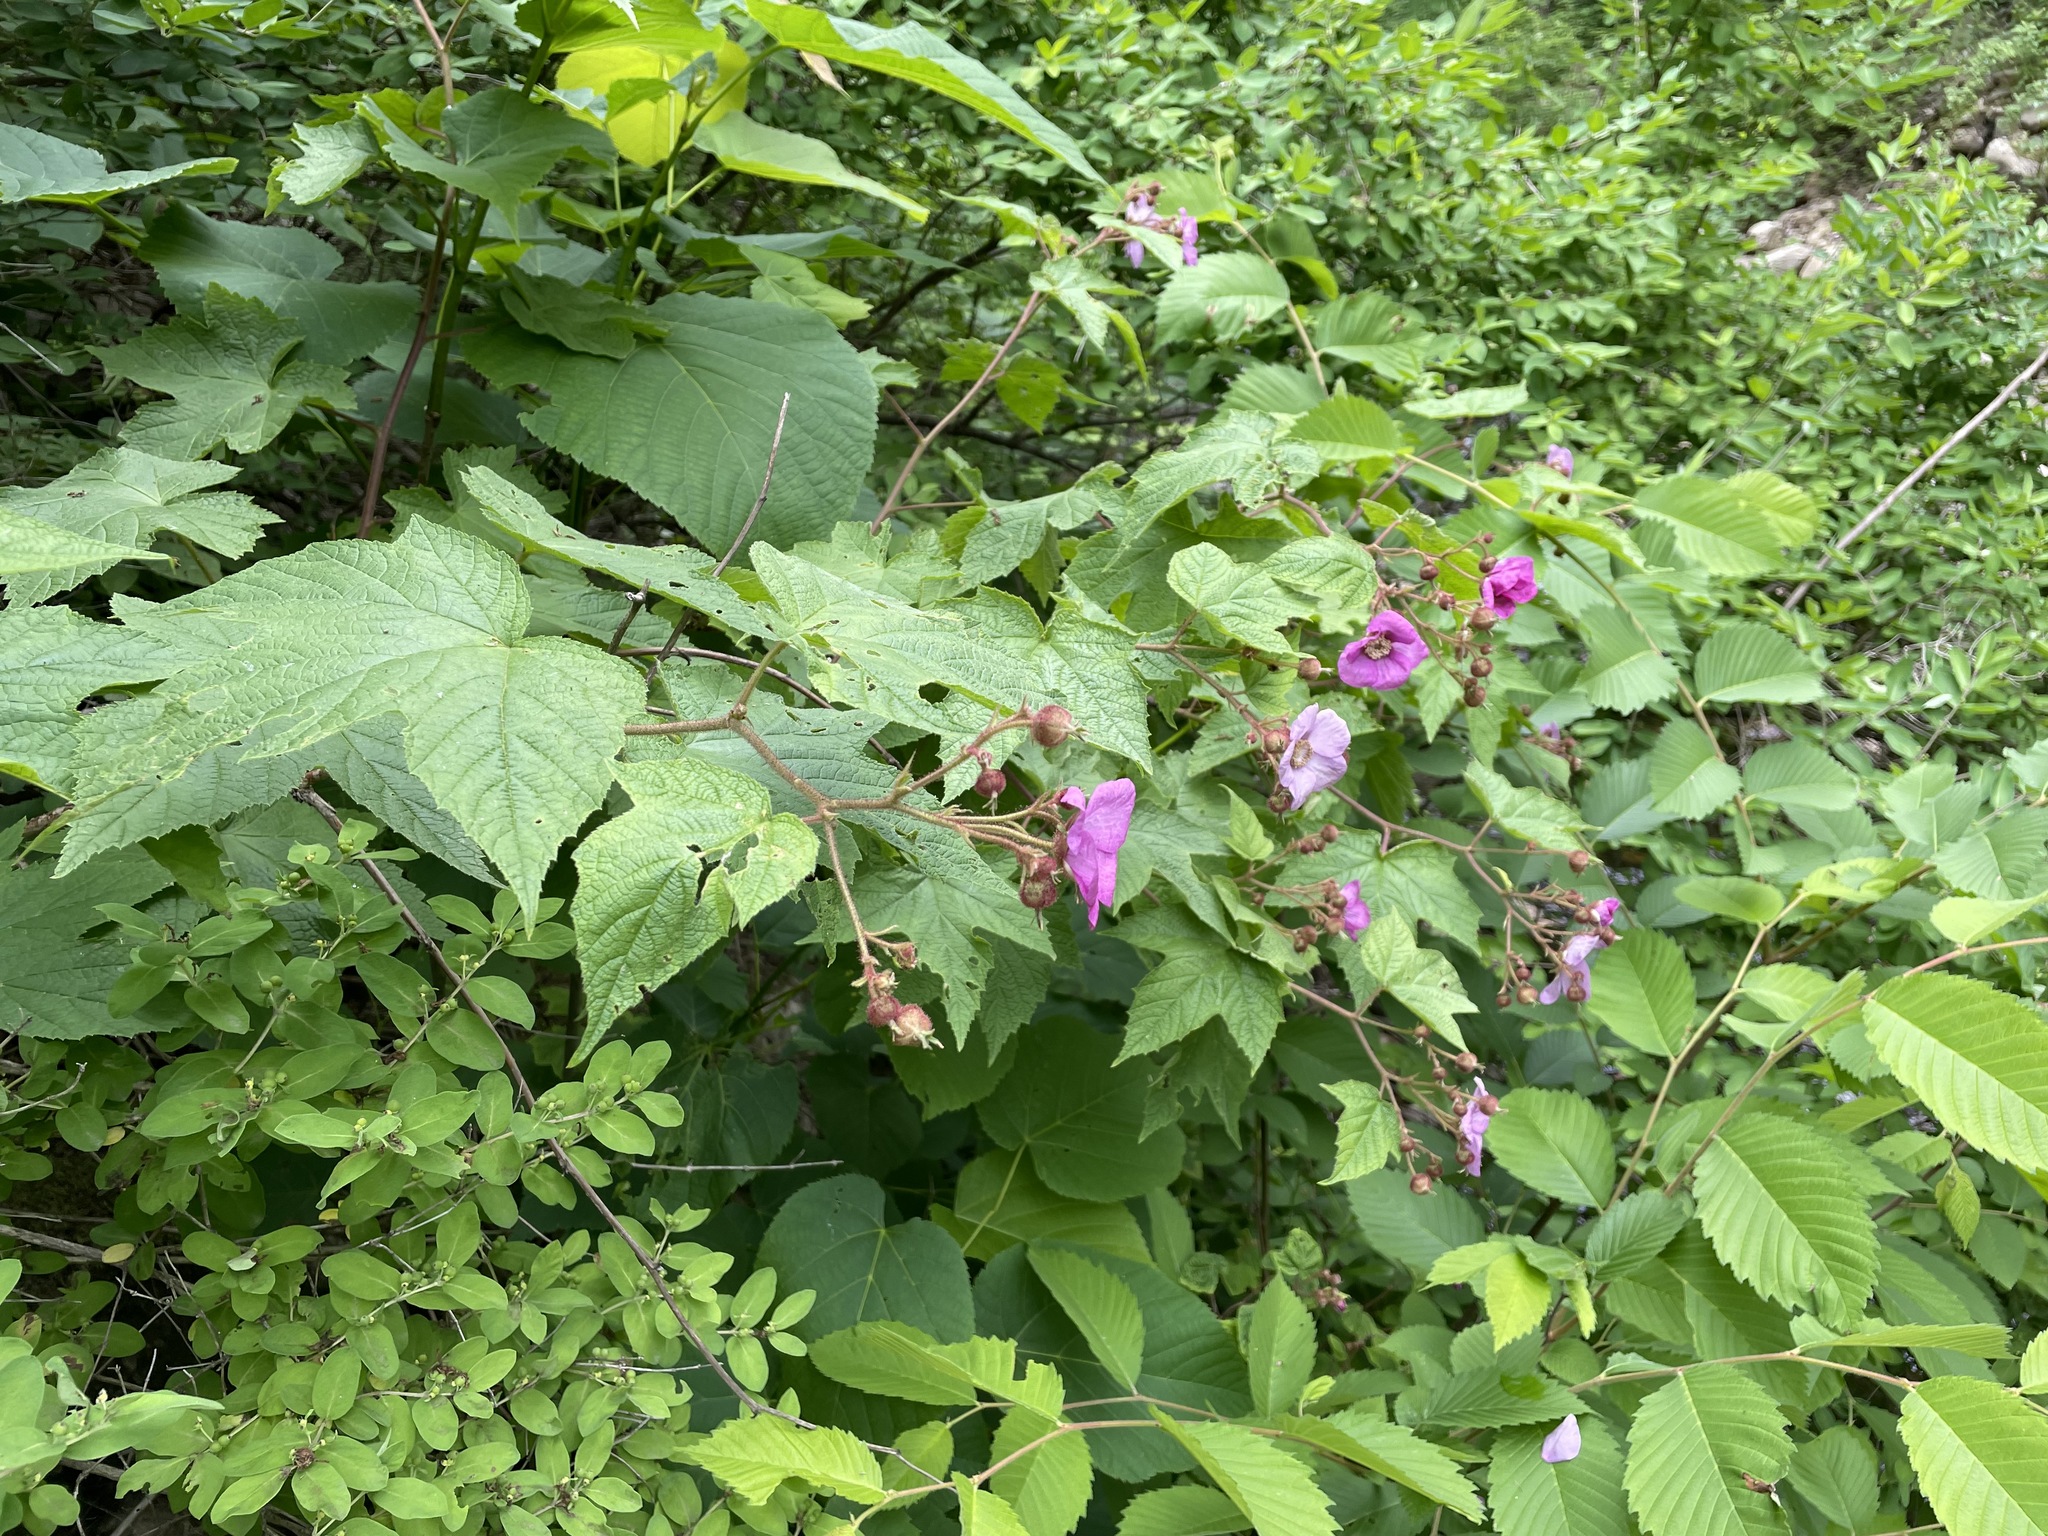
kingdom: Plantae
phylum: Tracheophyta
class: Magnoliopsida
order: Rosales
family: Rosaceae
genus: Rubus
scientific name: Rubus odoratus
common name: Purple-flowered raspberry
